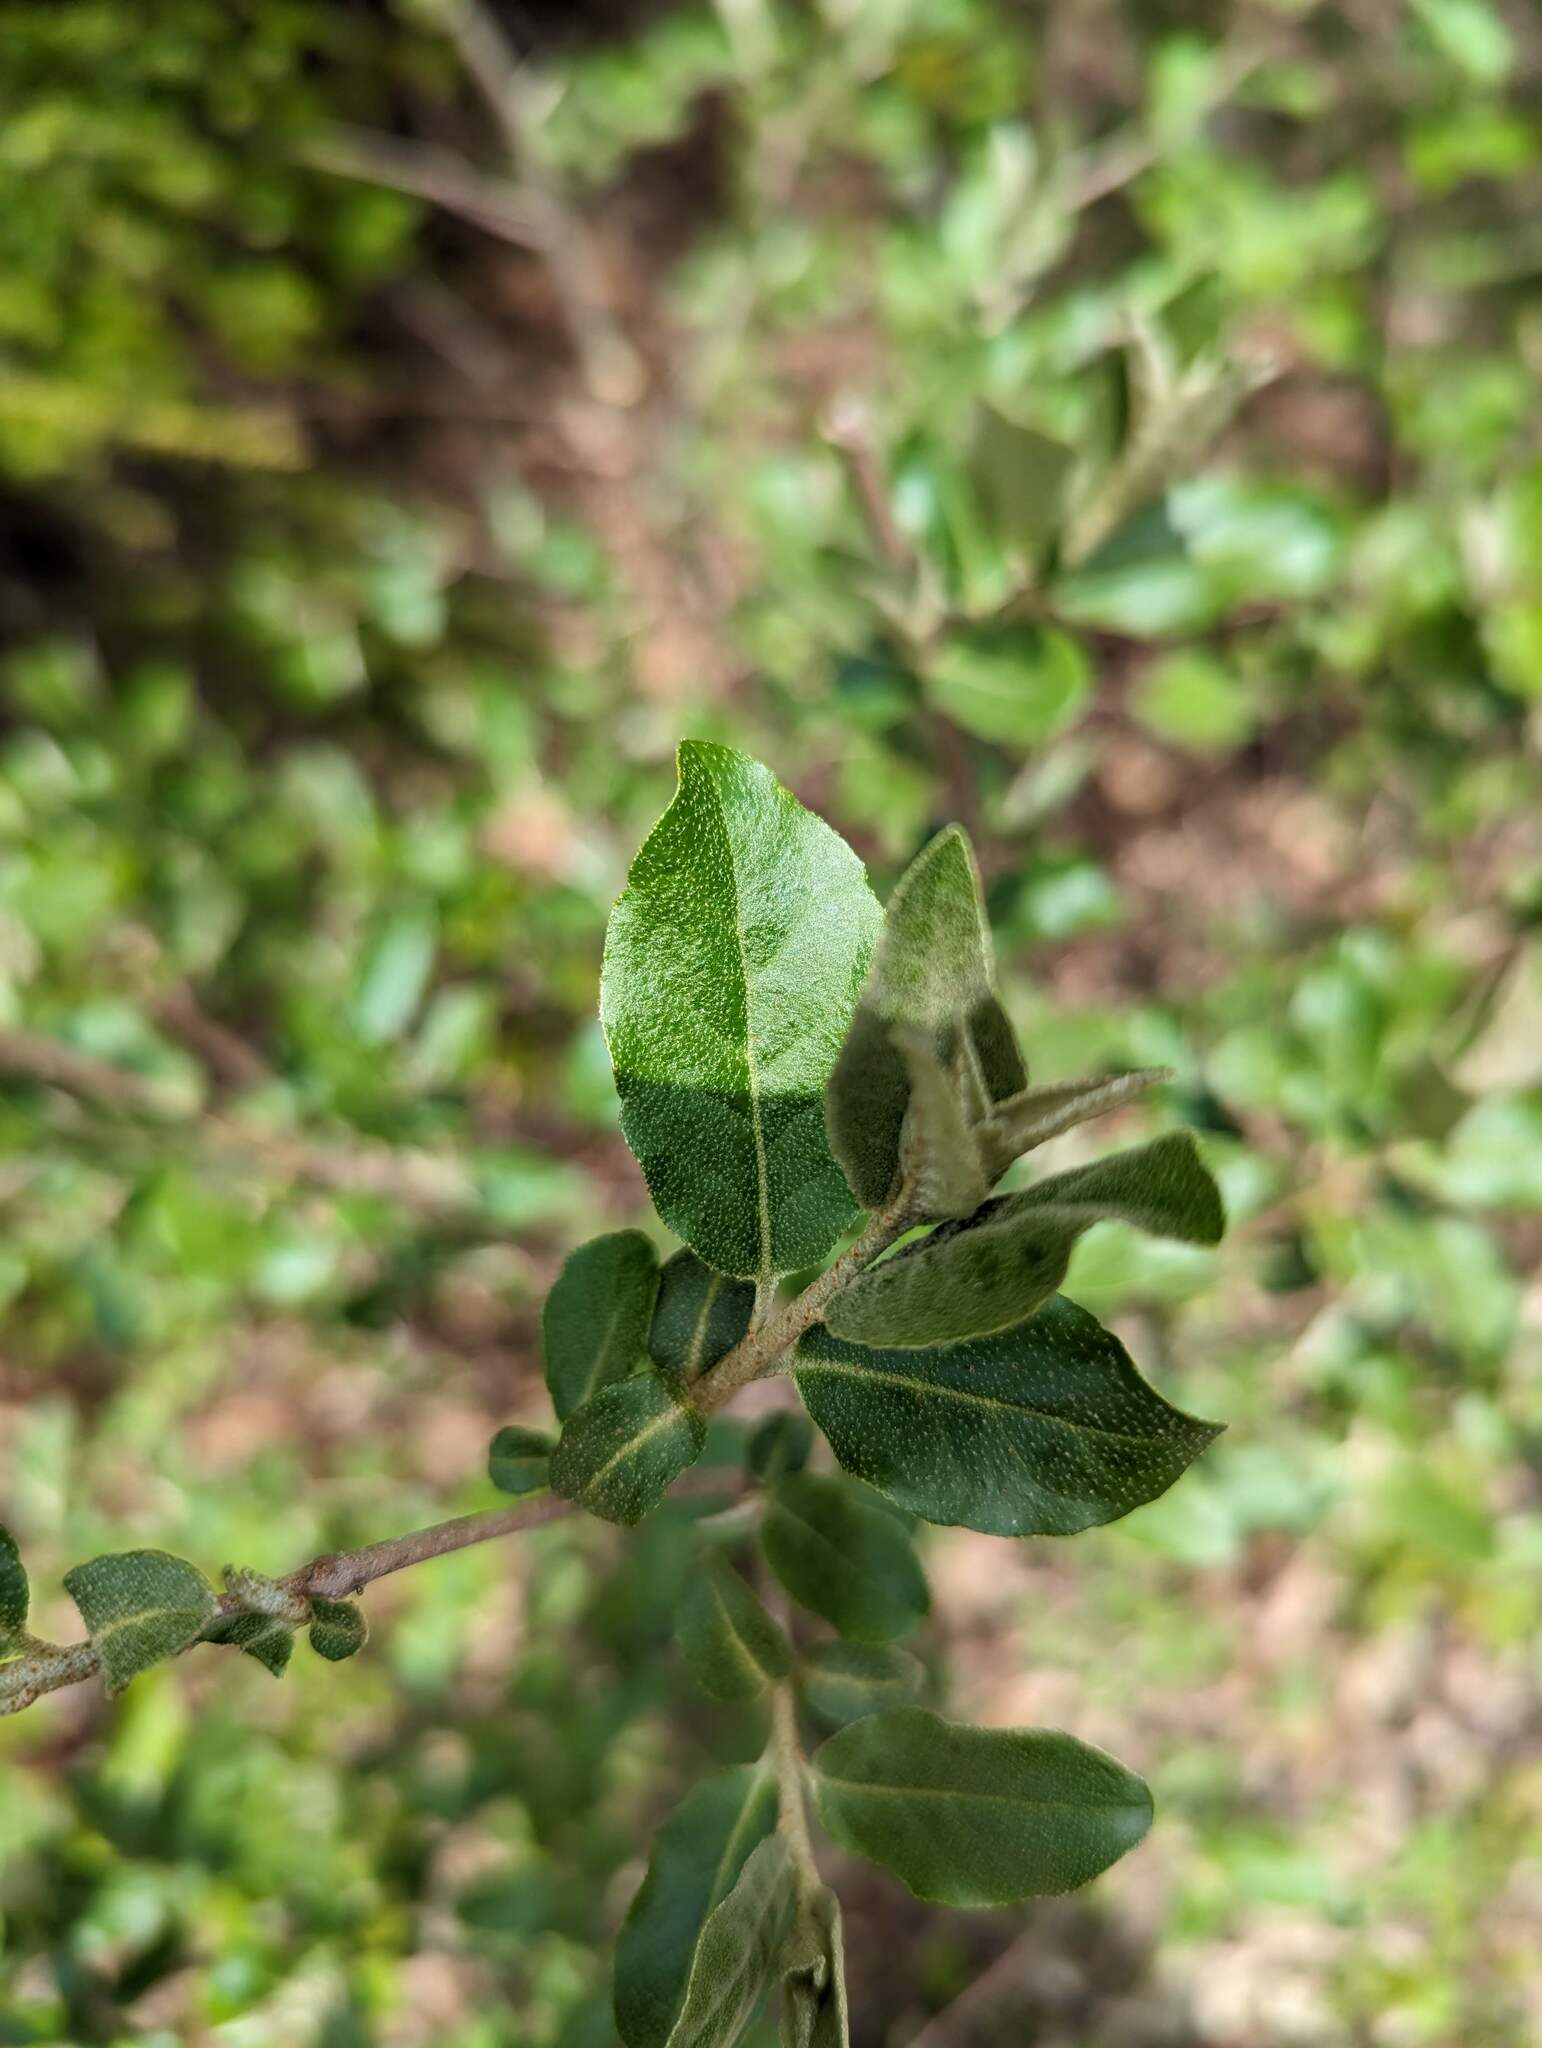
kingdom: Plantae
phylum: Tracheophyta
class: Magnoliopsida
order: Rosales
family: Elaeagnaceae
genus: Elaeagnus
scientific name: Elaeagnus umbellata
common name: Autumn olive
